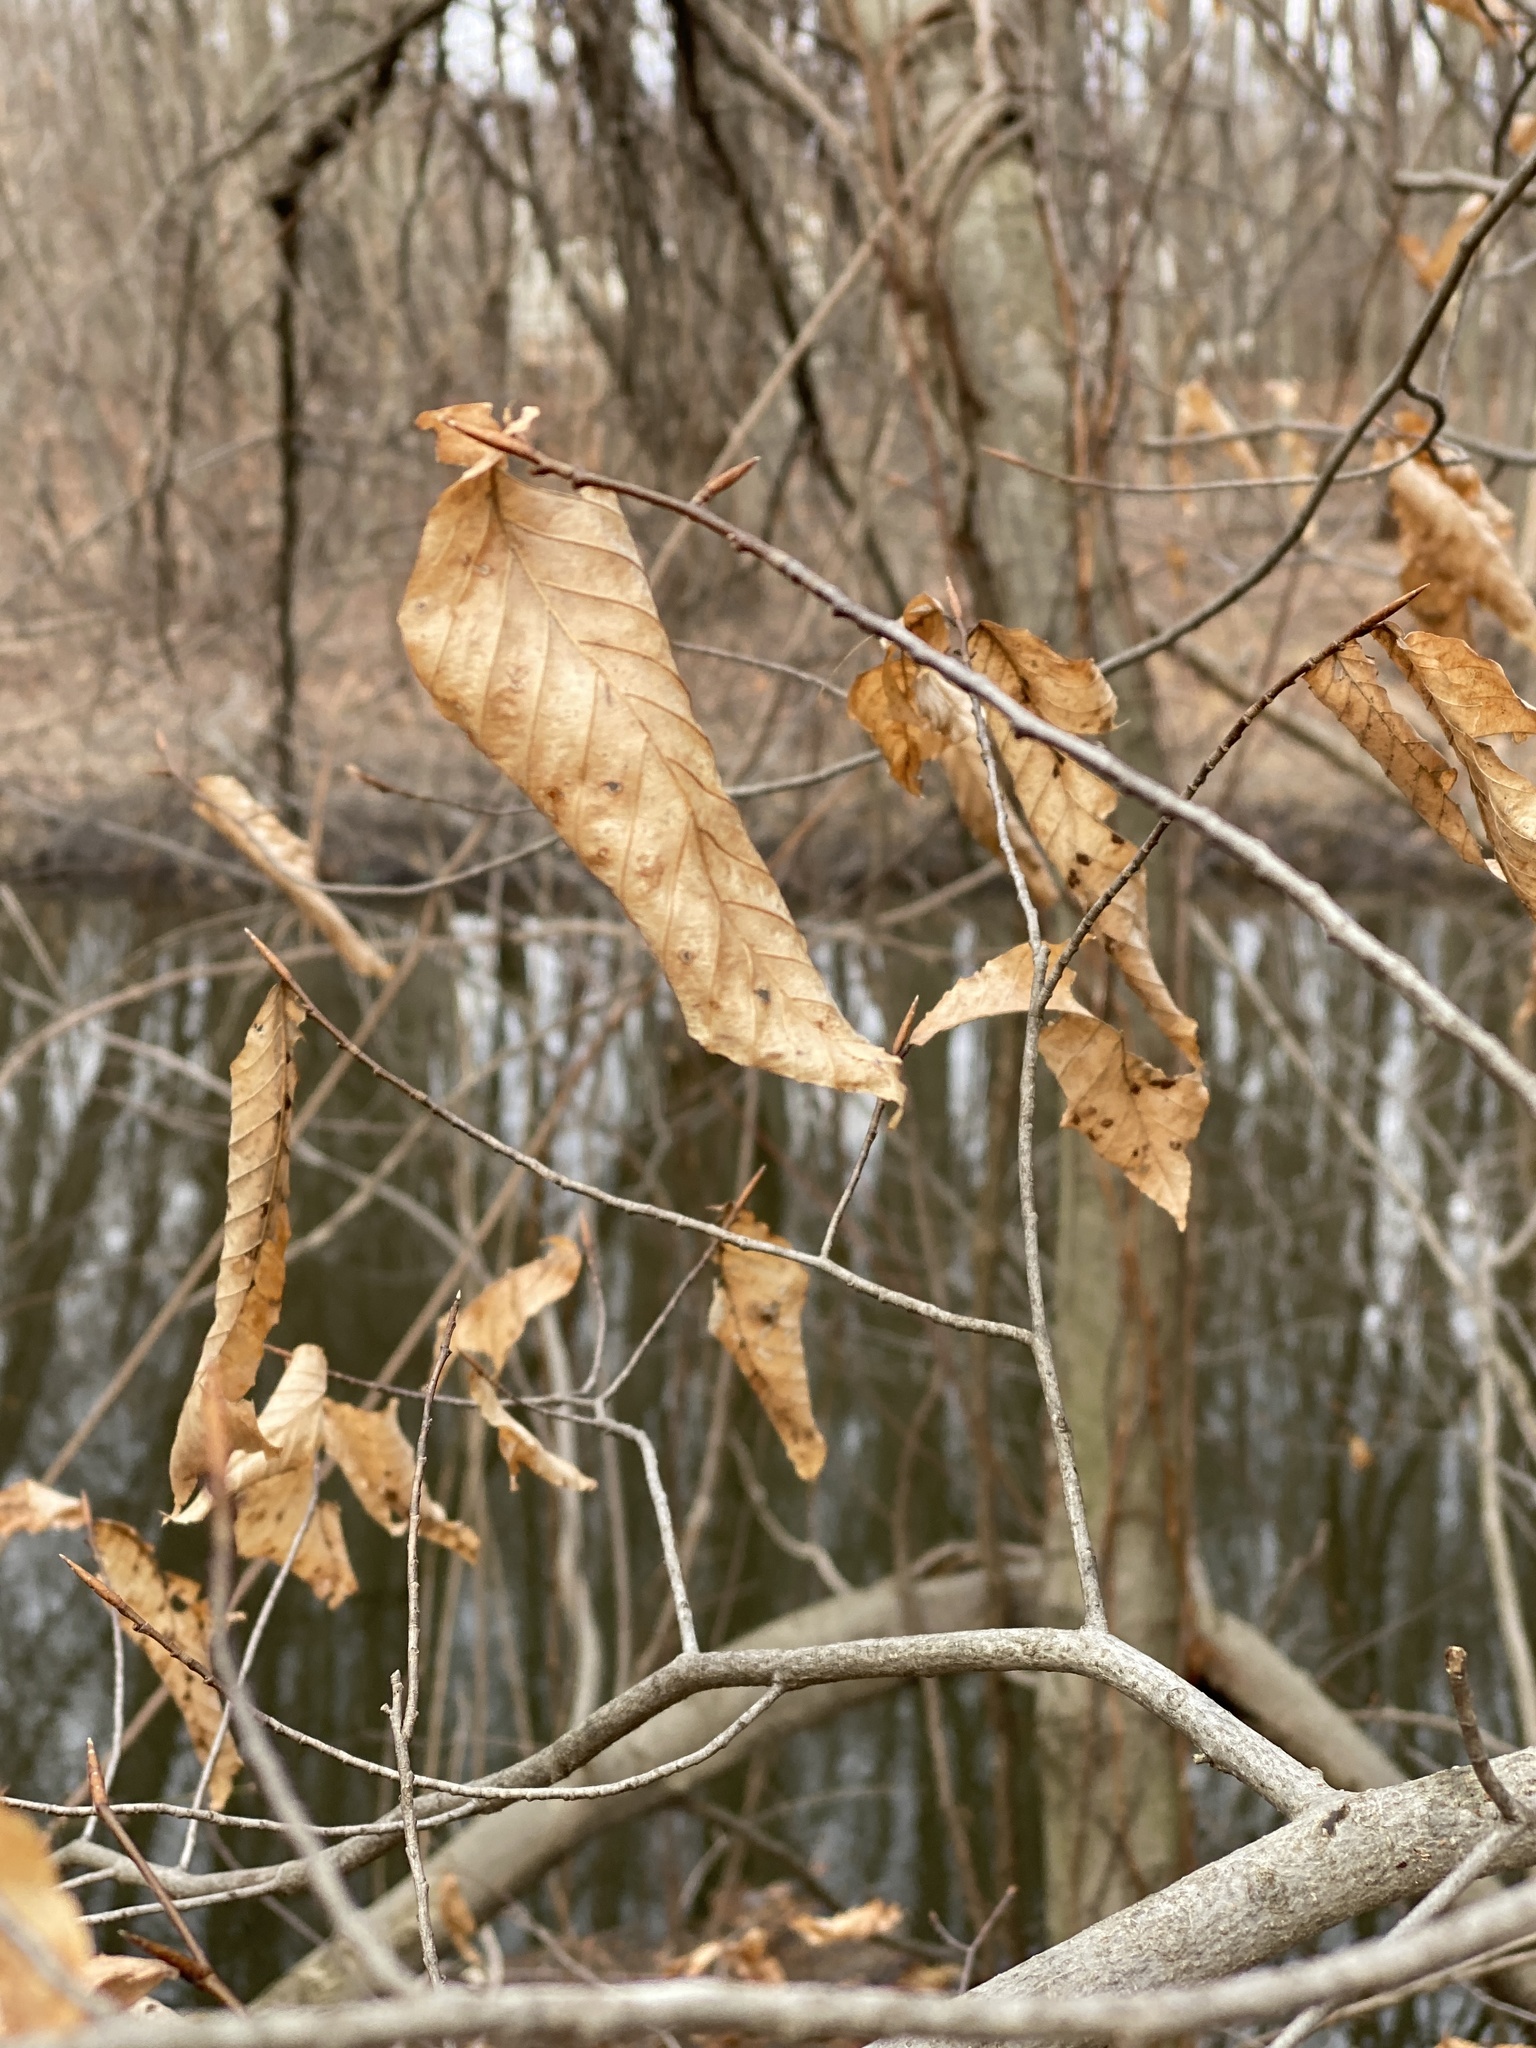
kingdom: Plantae
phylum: Tracheophyta
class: Magnoliopsida
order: Fagales
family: Fagaceae
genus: Fagus
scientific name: Fagus grandifolia
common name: American beech
